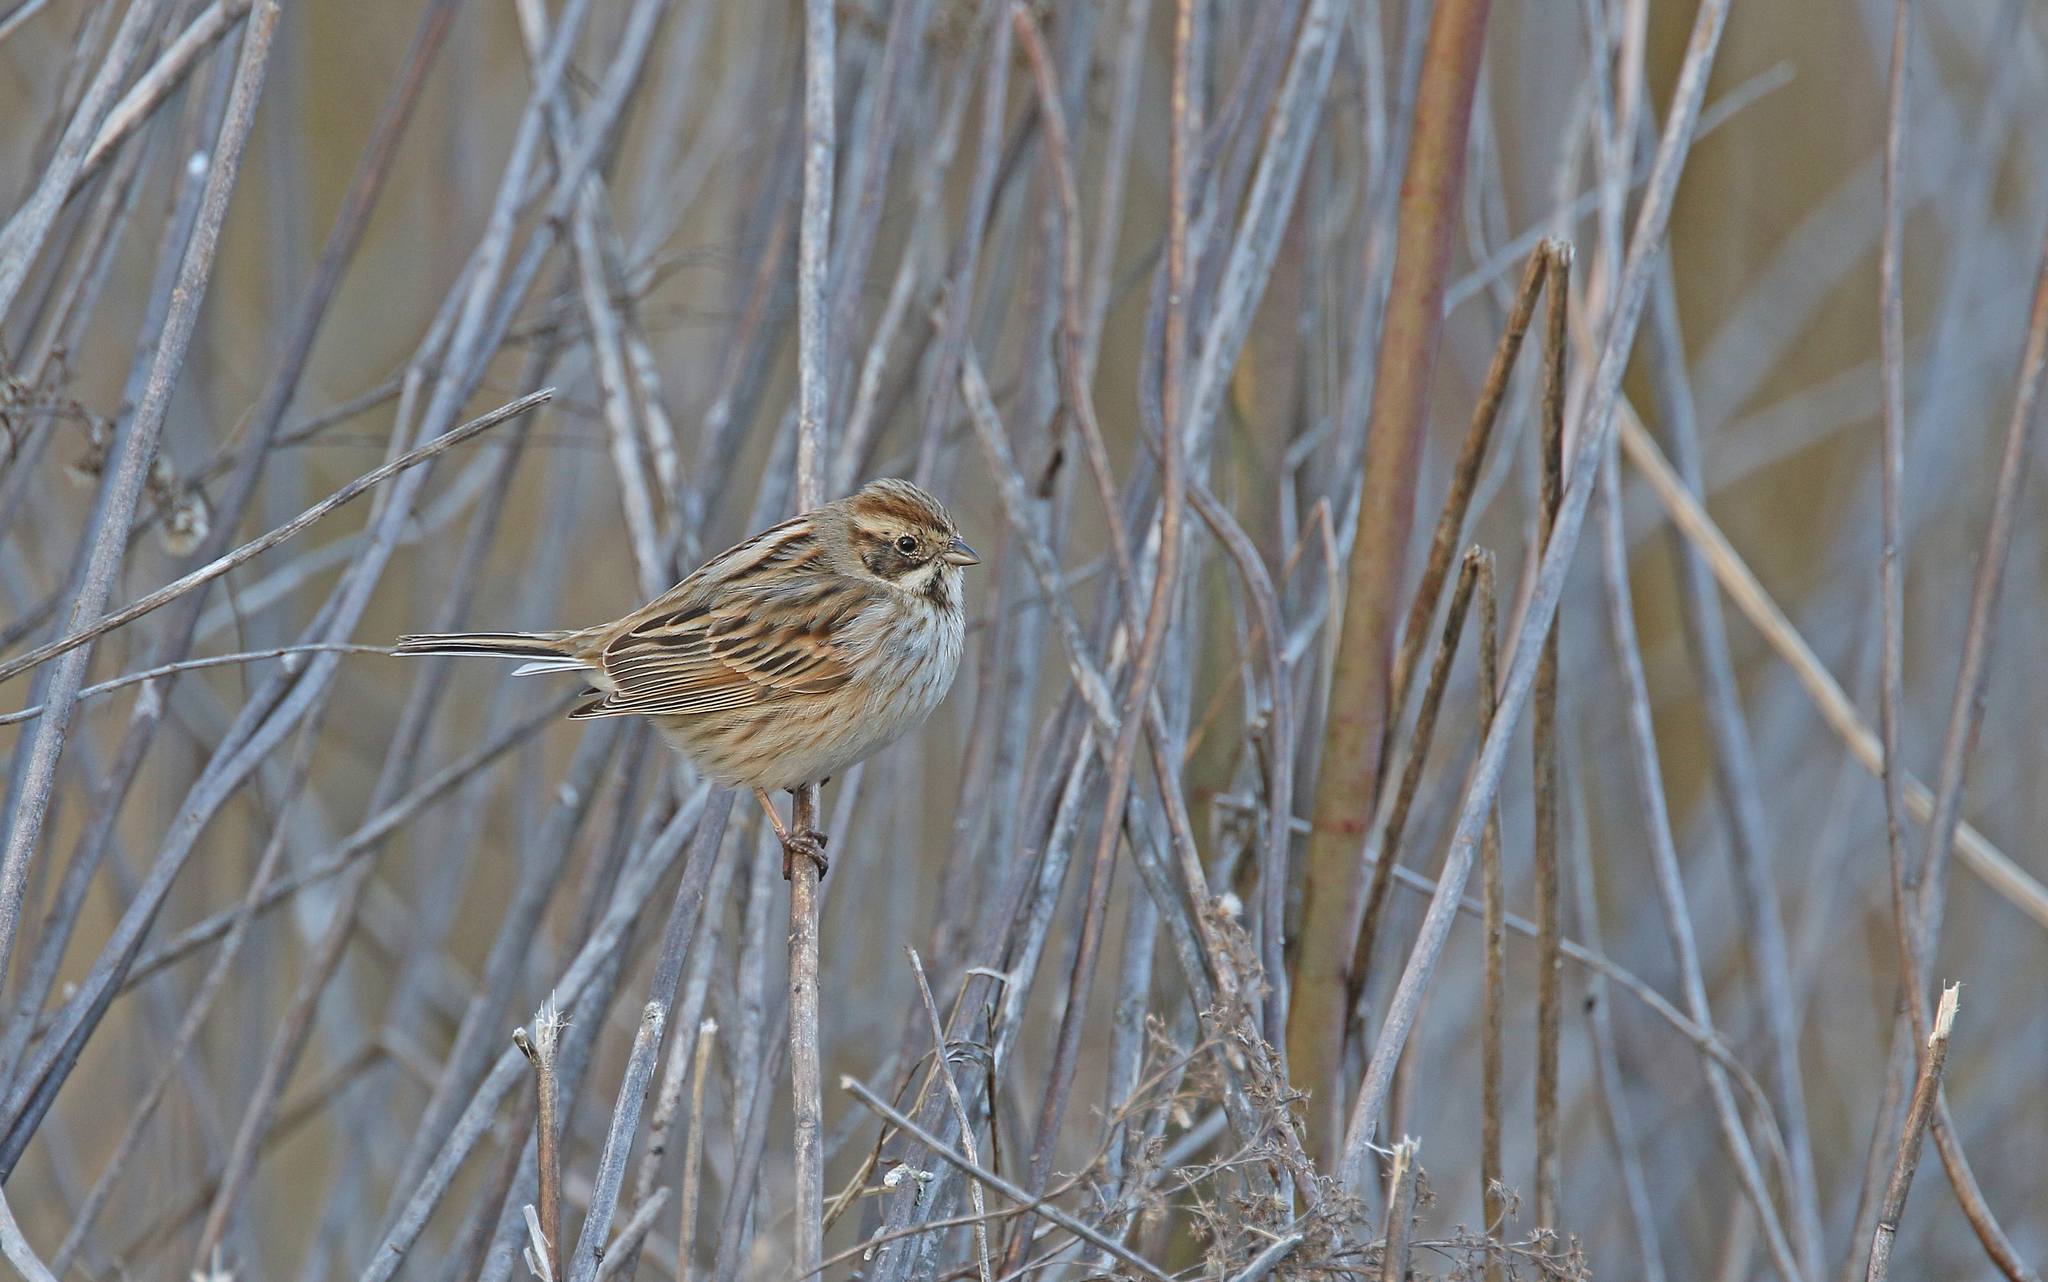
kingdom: Animalia
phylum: Chordata
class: Aves
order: Passeriformes
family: Emberizidae
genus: Emberiza
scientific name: Emberiza schoeniclus
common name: Reed bunting
